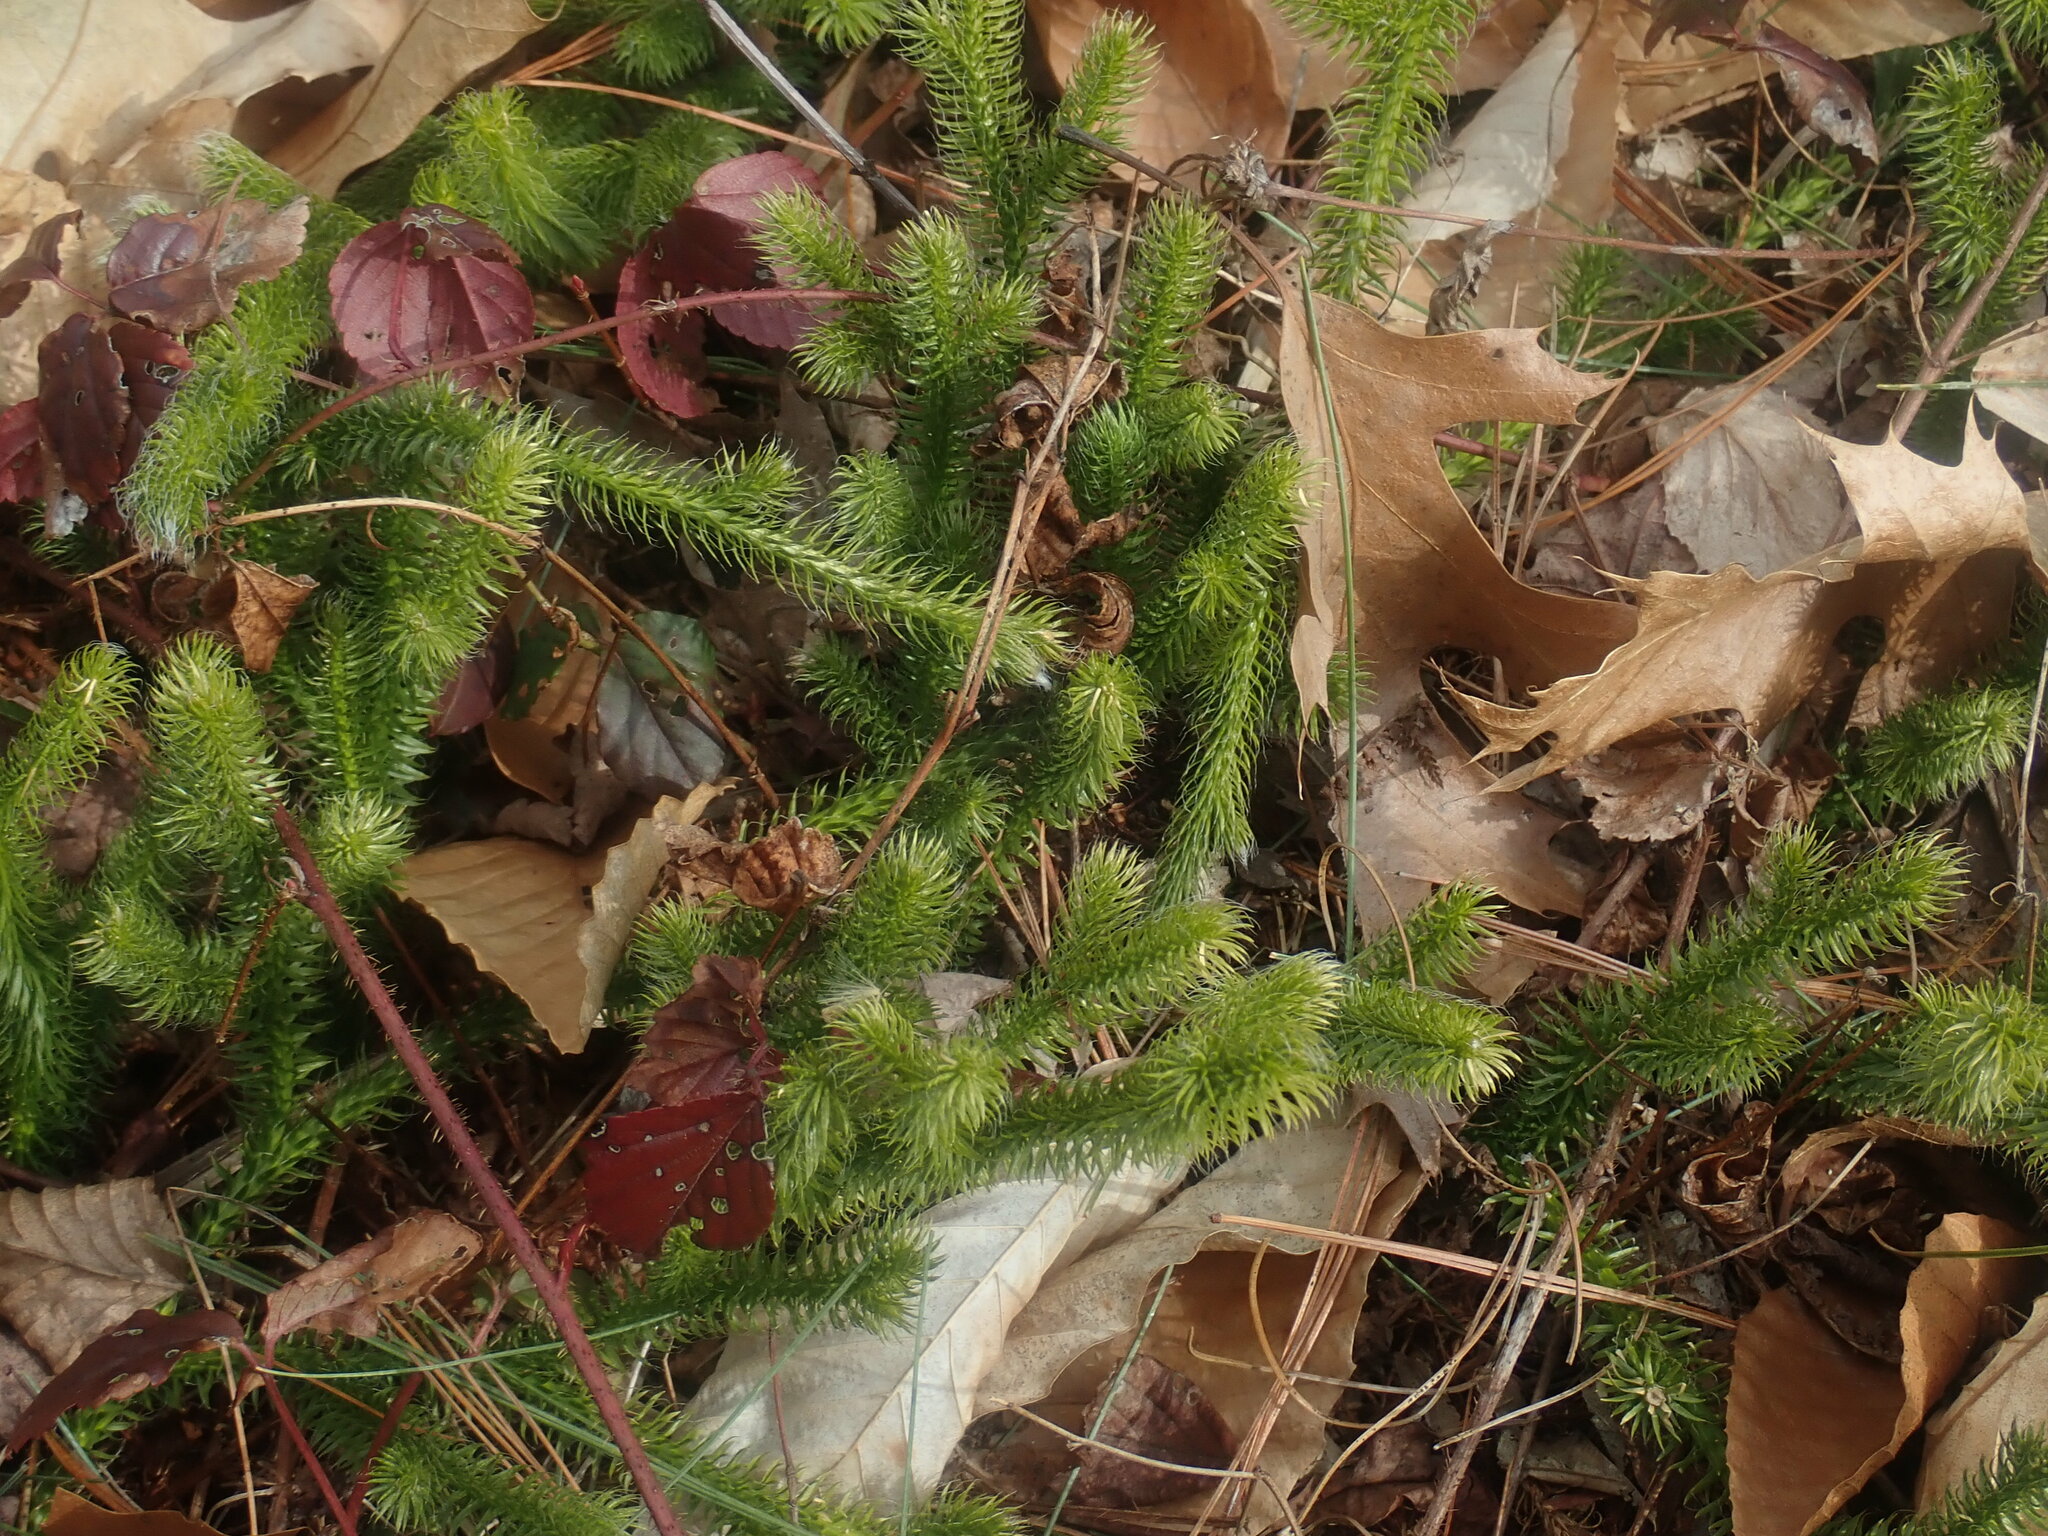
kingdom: Plantae
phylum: Tracheophyta
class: Lycopodiopsida
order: Lycopodiales
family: Lycopodiaceae
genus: Lycopodium
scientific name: Lycopodium clavatum
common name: Stag's-horn clubmoss
